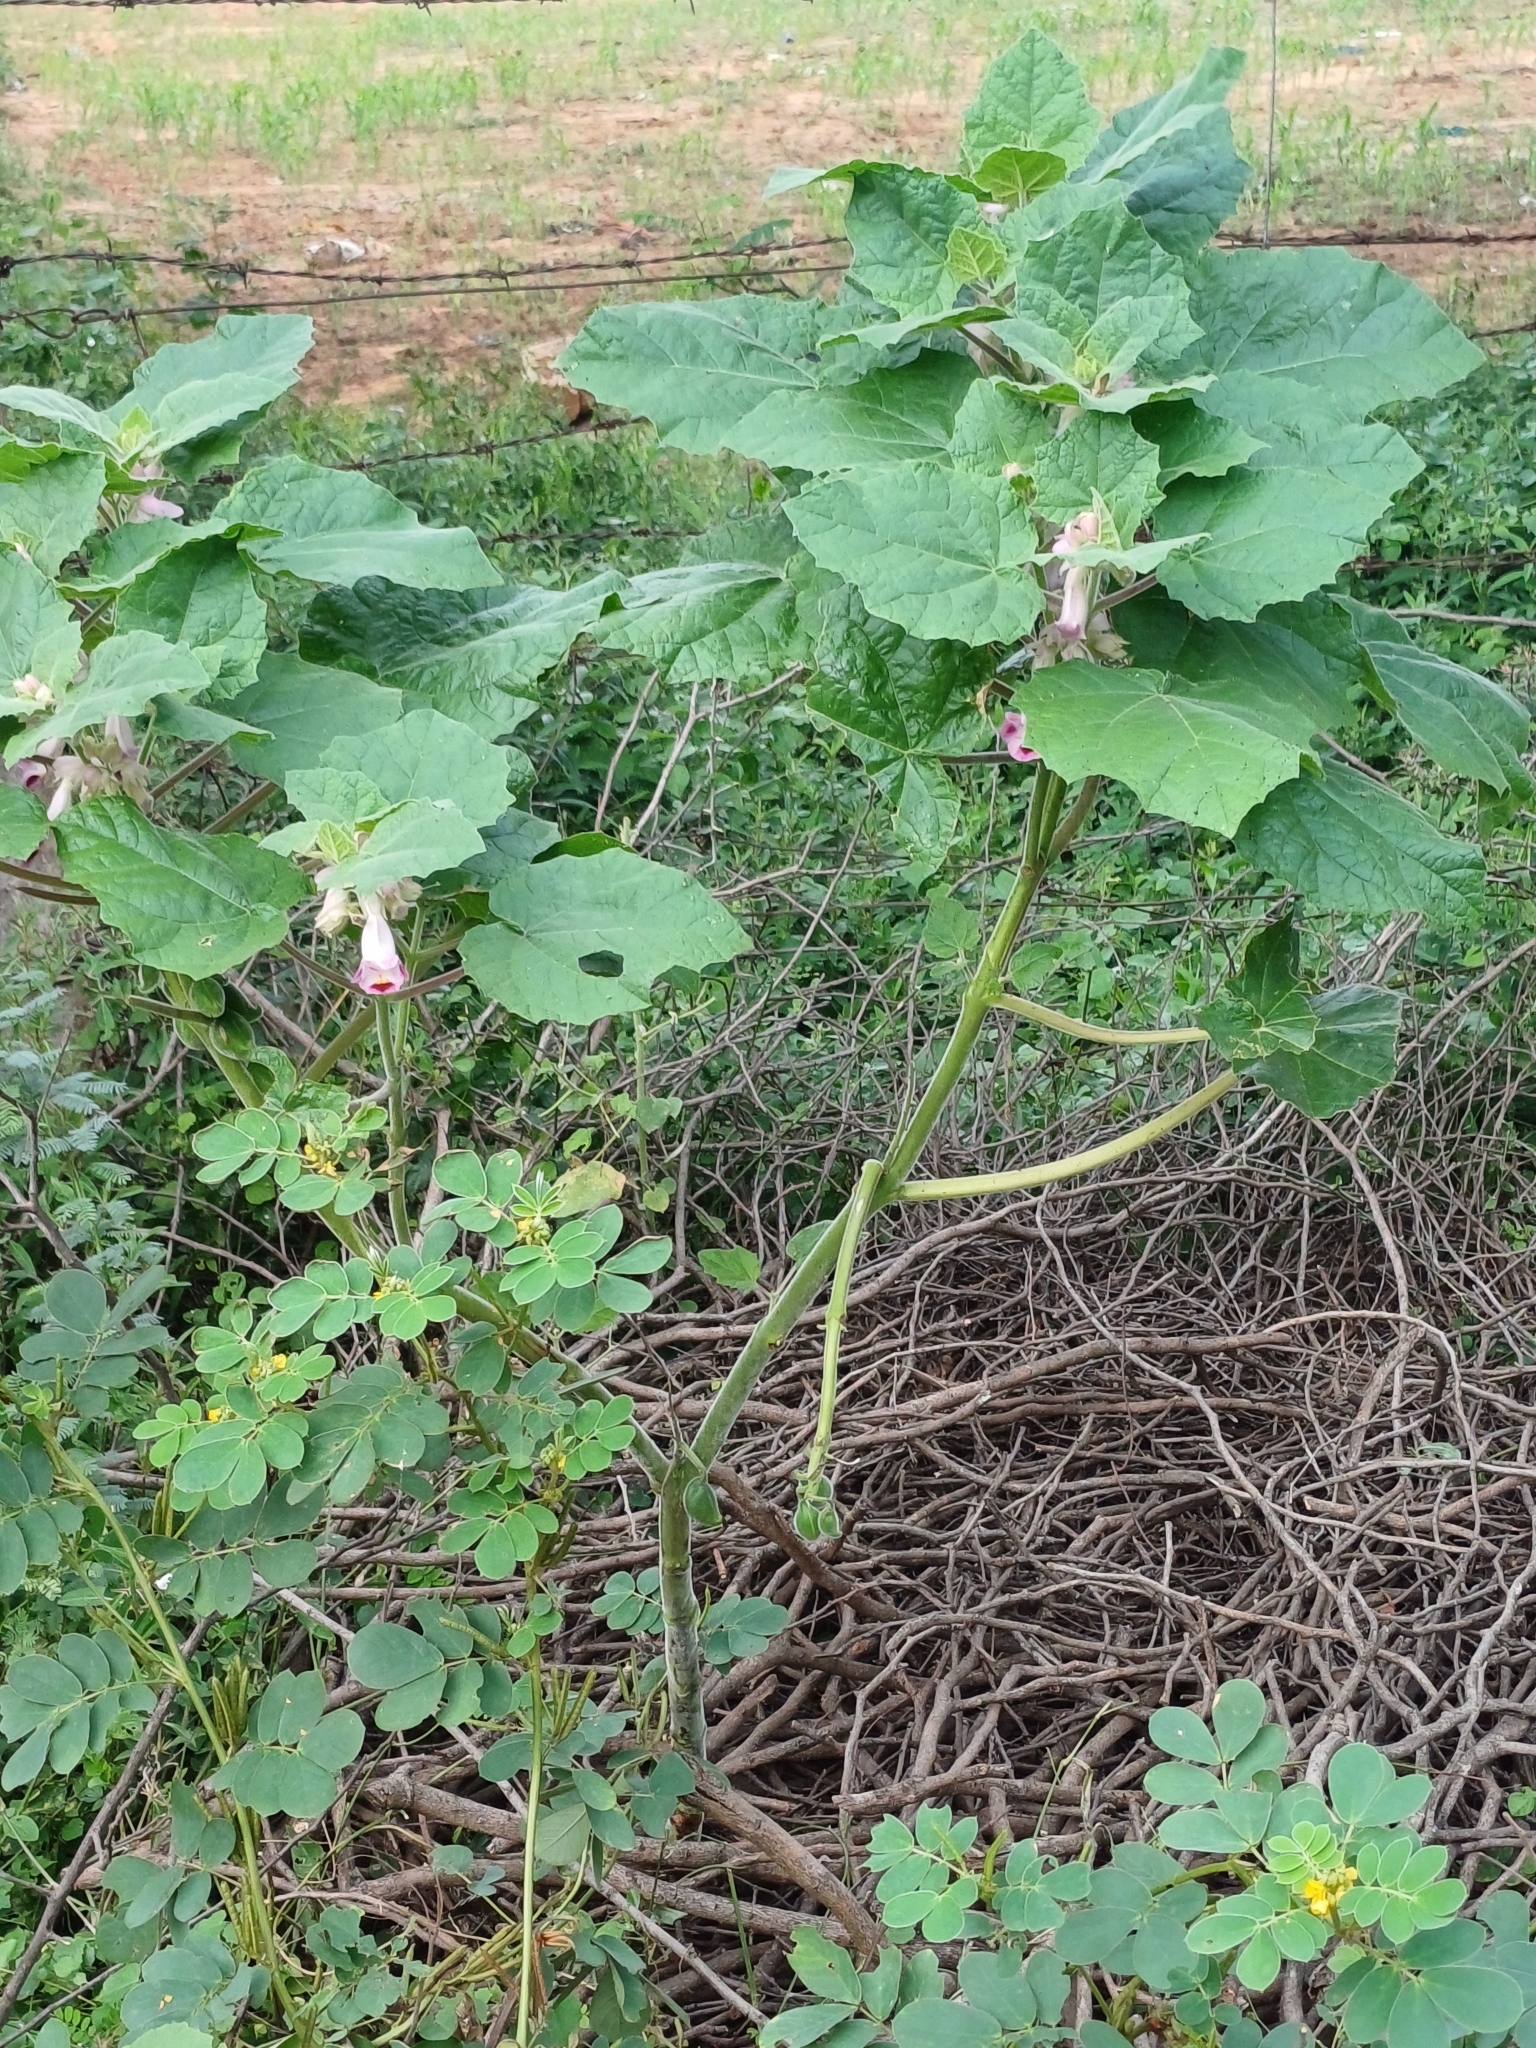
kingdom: Plantae
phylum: Tracheophyta
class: Magnoliopsida
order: Lamiales
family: Martyniaceae
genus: Martynia
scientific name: Martynia annua
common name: Tiger's-claw
